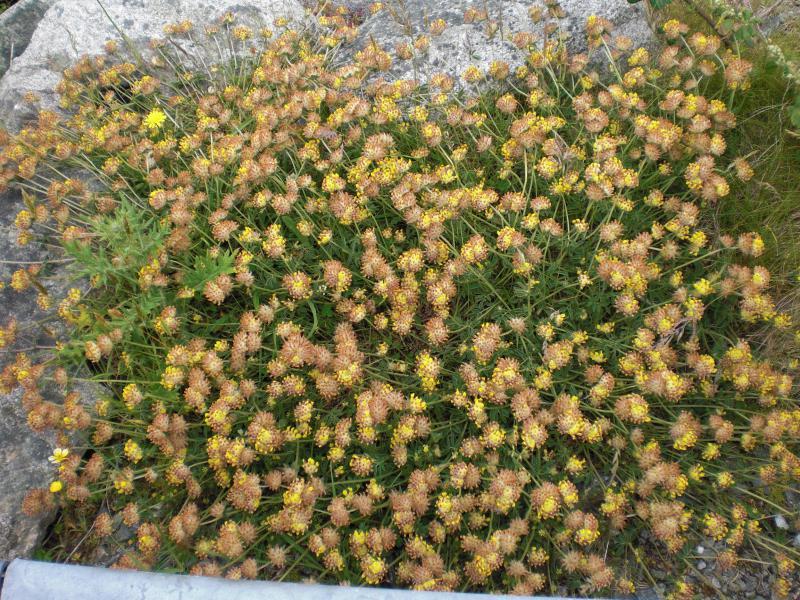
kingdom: Plantae
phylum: Tracheophyta
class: Magnoliopsida
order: Fabales
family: Fabaceae
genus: Anthyllis
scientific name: Anthyllis vulneraria
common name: Kidney vetch
